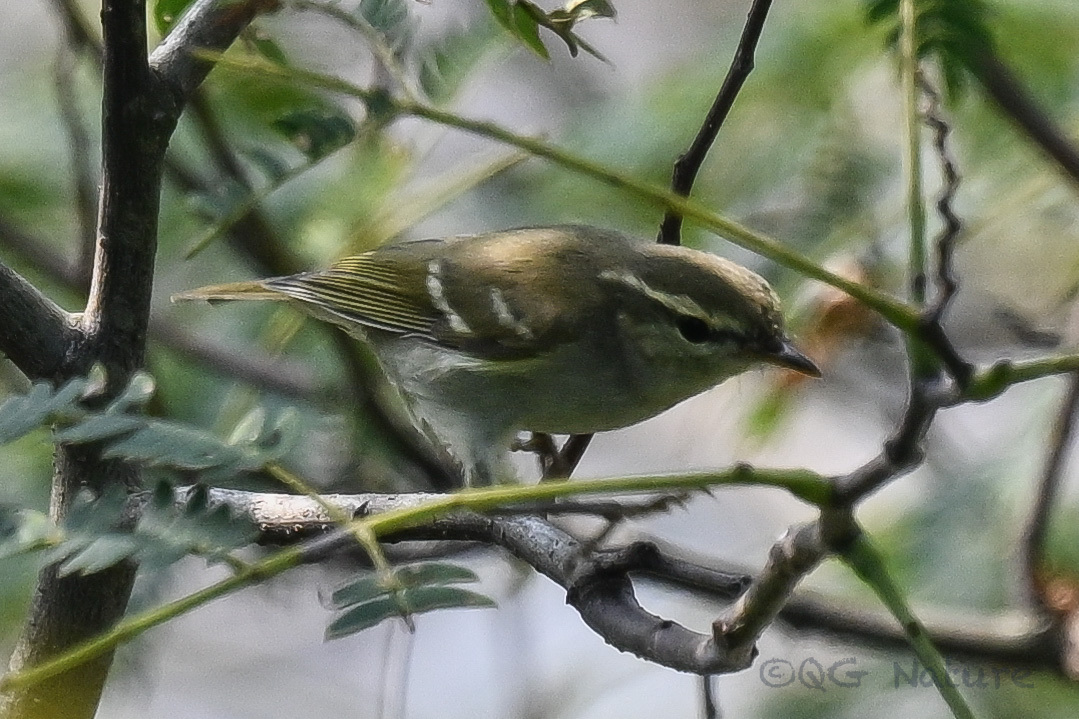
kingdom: Animalia
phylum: Chordata
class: Aves
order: Passeriformes
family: Phylloscopidae
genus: Phylloscopus
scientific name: Phylloscopus plumbeitarsus
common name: Two-barred warbler
